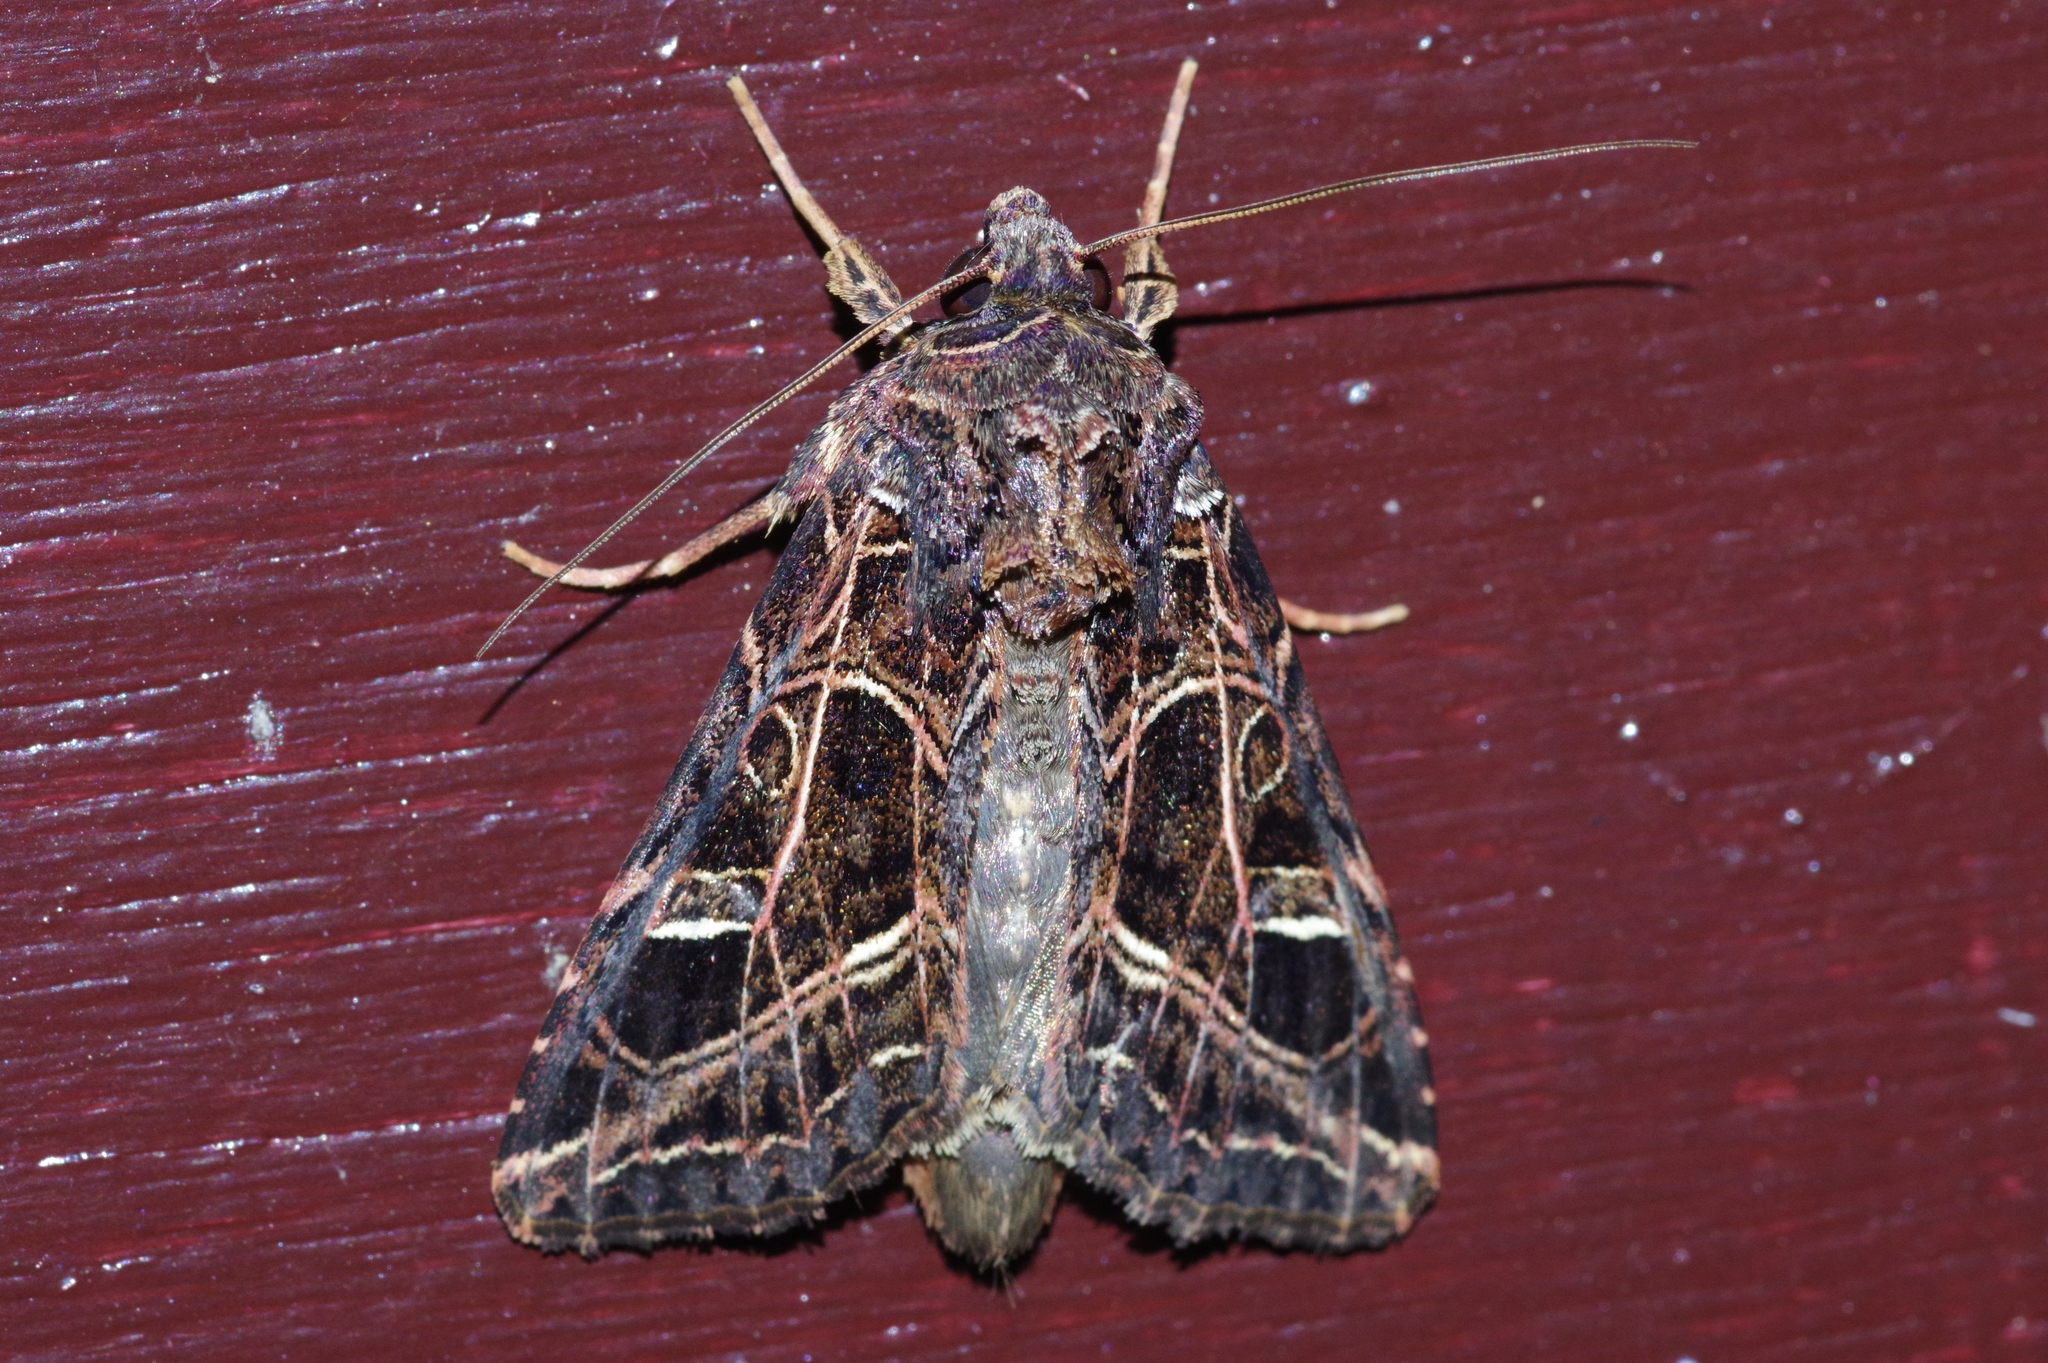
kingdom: Animalia
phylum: Arthropoda
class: Insecta
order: Lepidoptera
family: Noctuidae
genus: Dictyestra
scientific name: Dictyestra dissectus
